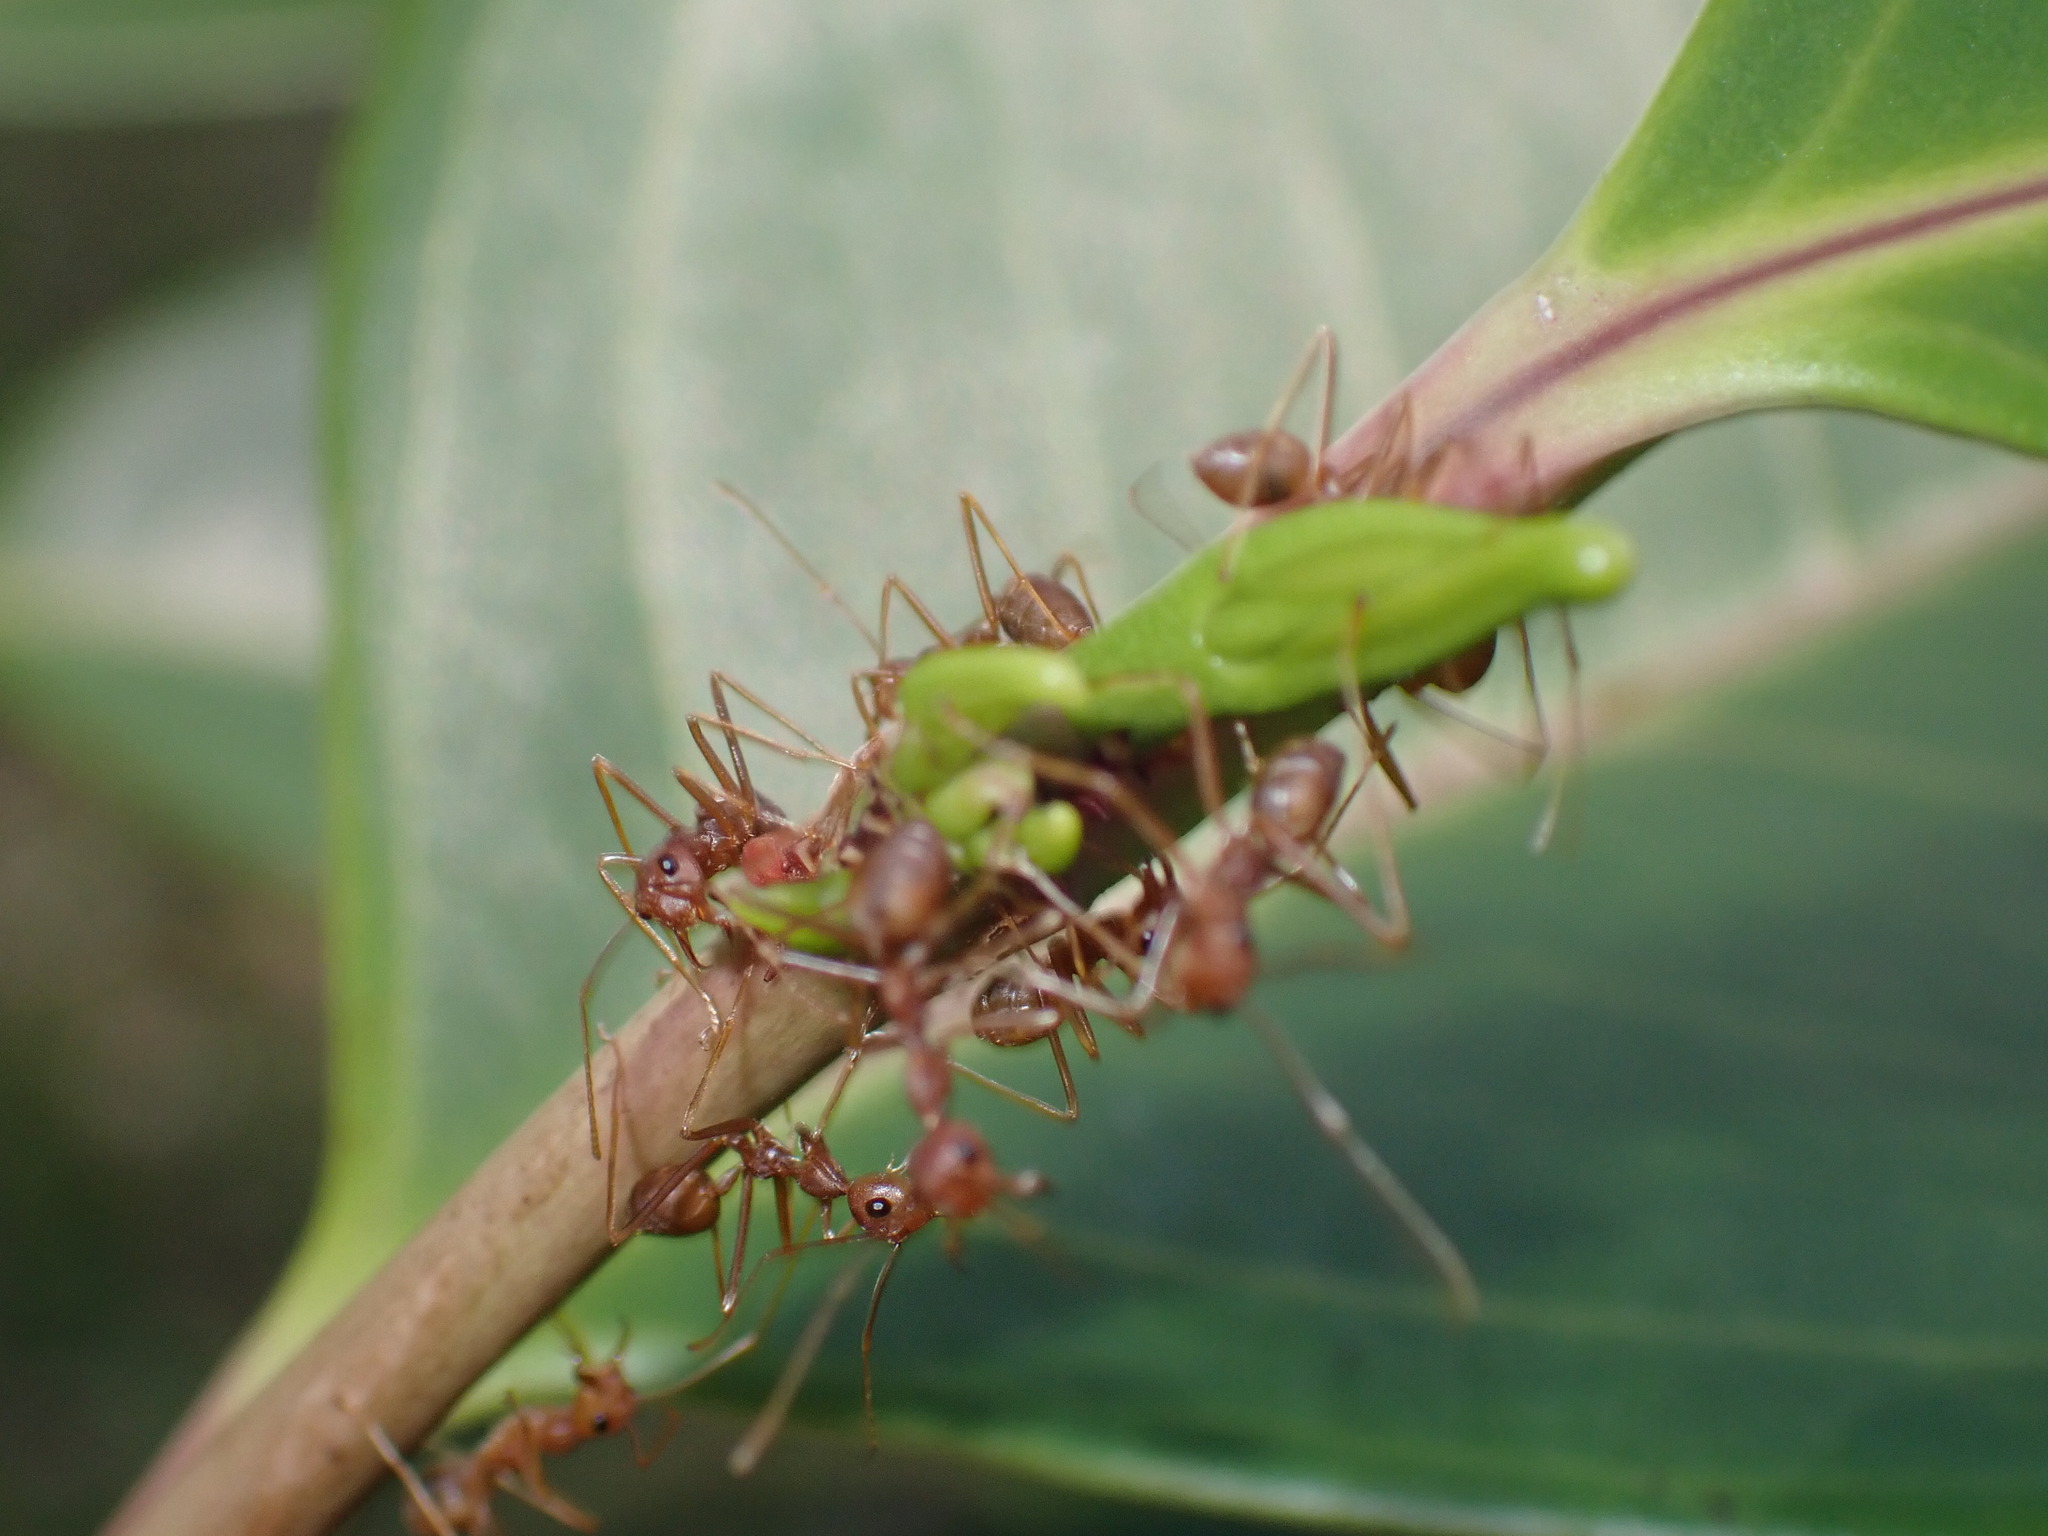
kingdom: Animalia
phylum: Arthropoda
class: Insecta
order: Hymenoptera
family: Formicidae
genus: Oecophylla
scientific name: Oecophylla smaragdina
